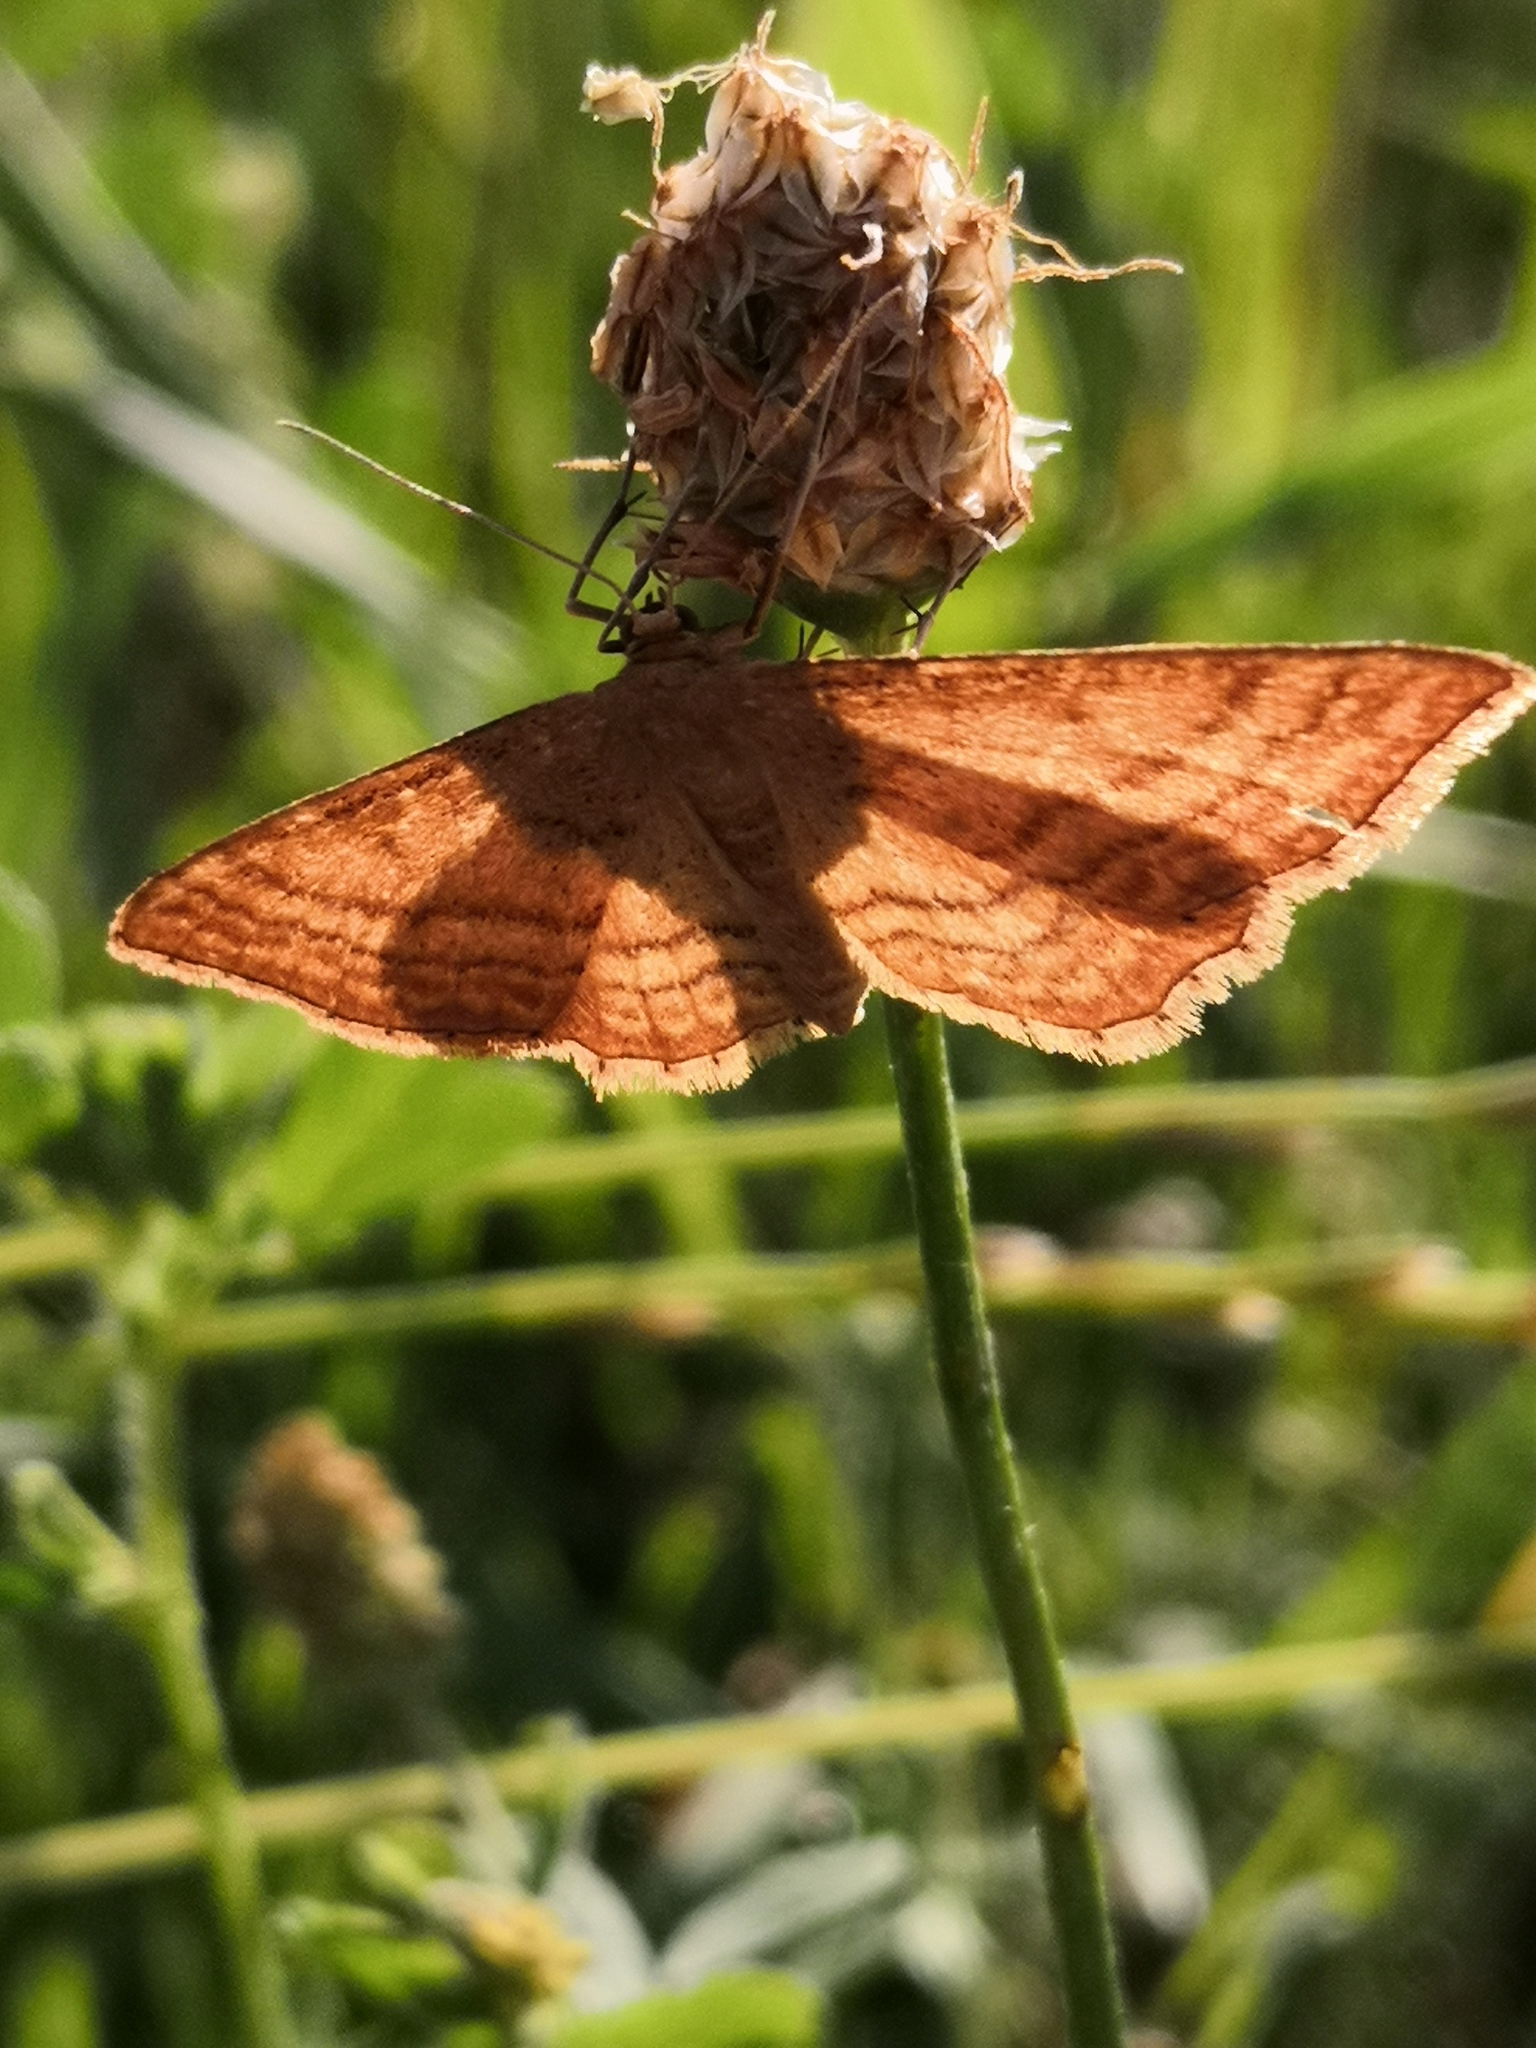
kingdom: Animalia
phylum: Arthropoda
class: Insecta
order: Lepidoptera
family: Geometridae
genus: Idaea
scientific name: Idaea ochrata
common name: Bright wave
